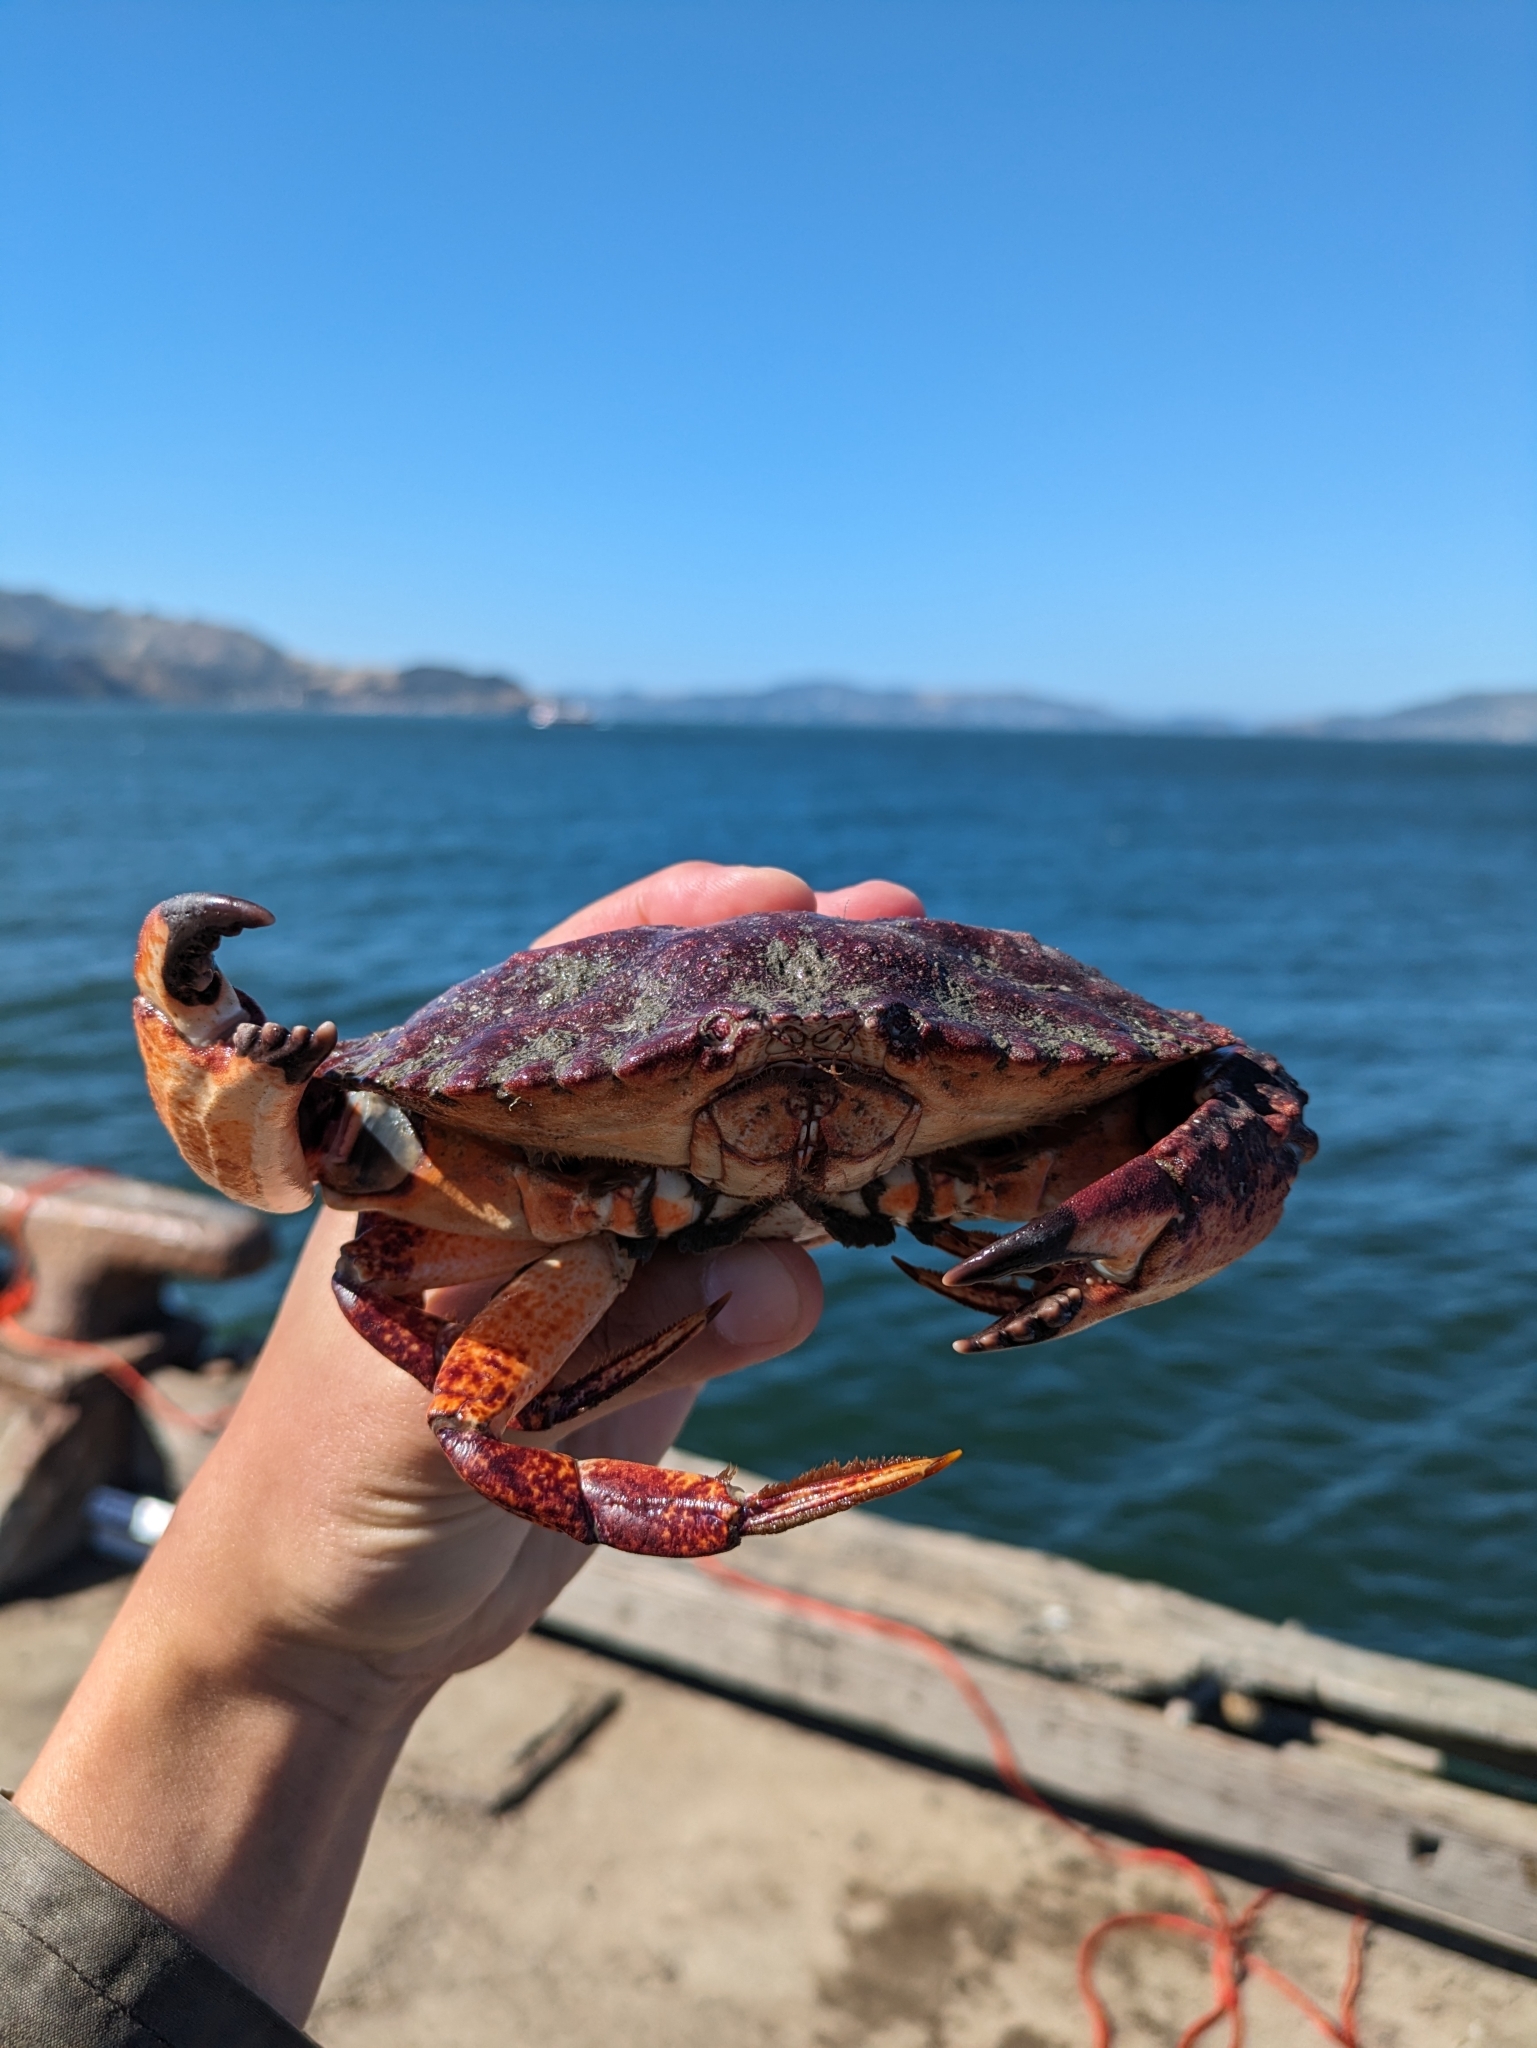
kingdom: Animalia
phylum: Arthropoda
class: Malacostraca
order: Decapoda
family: Cancridae
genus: Cancer
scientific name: Cancer productus
